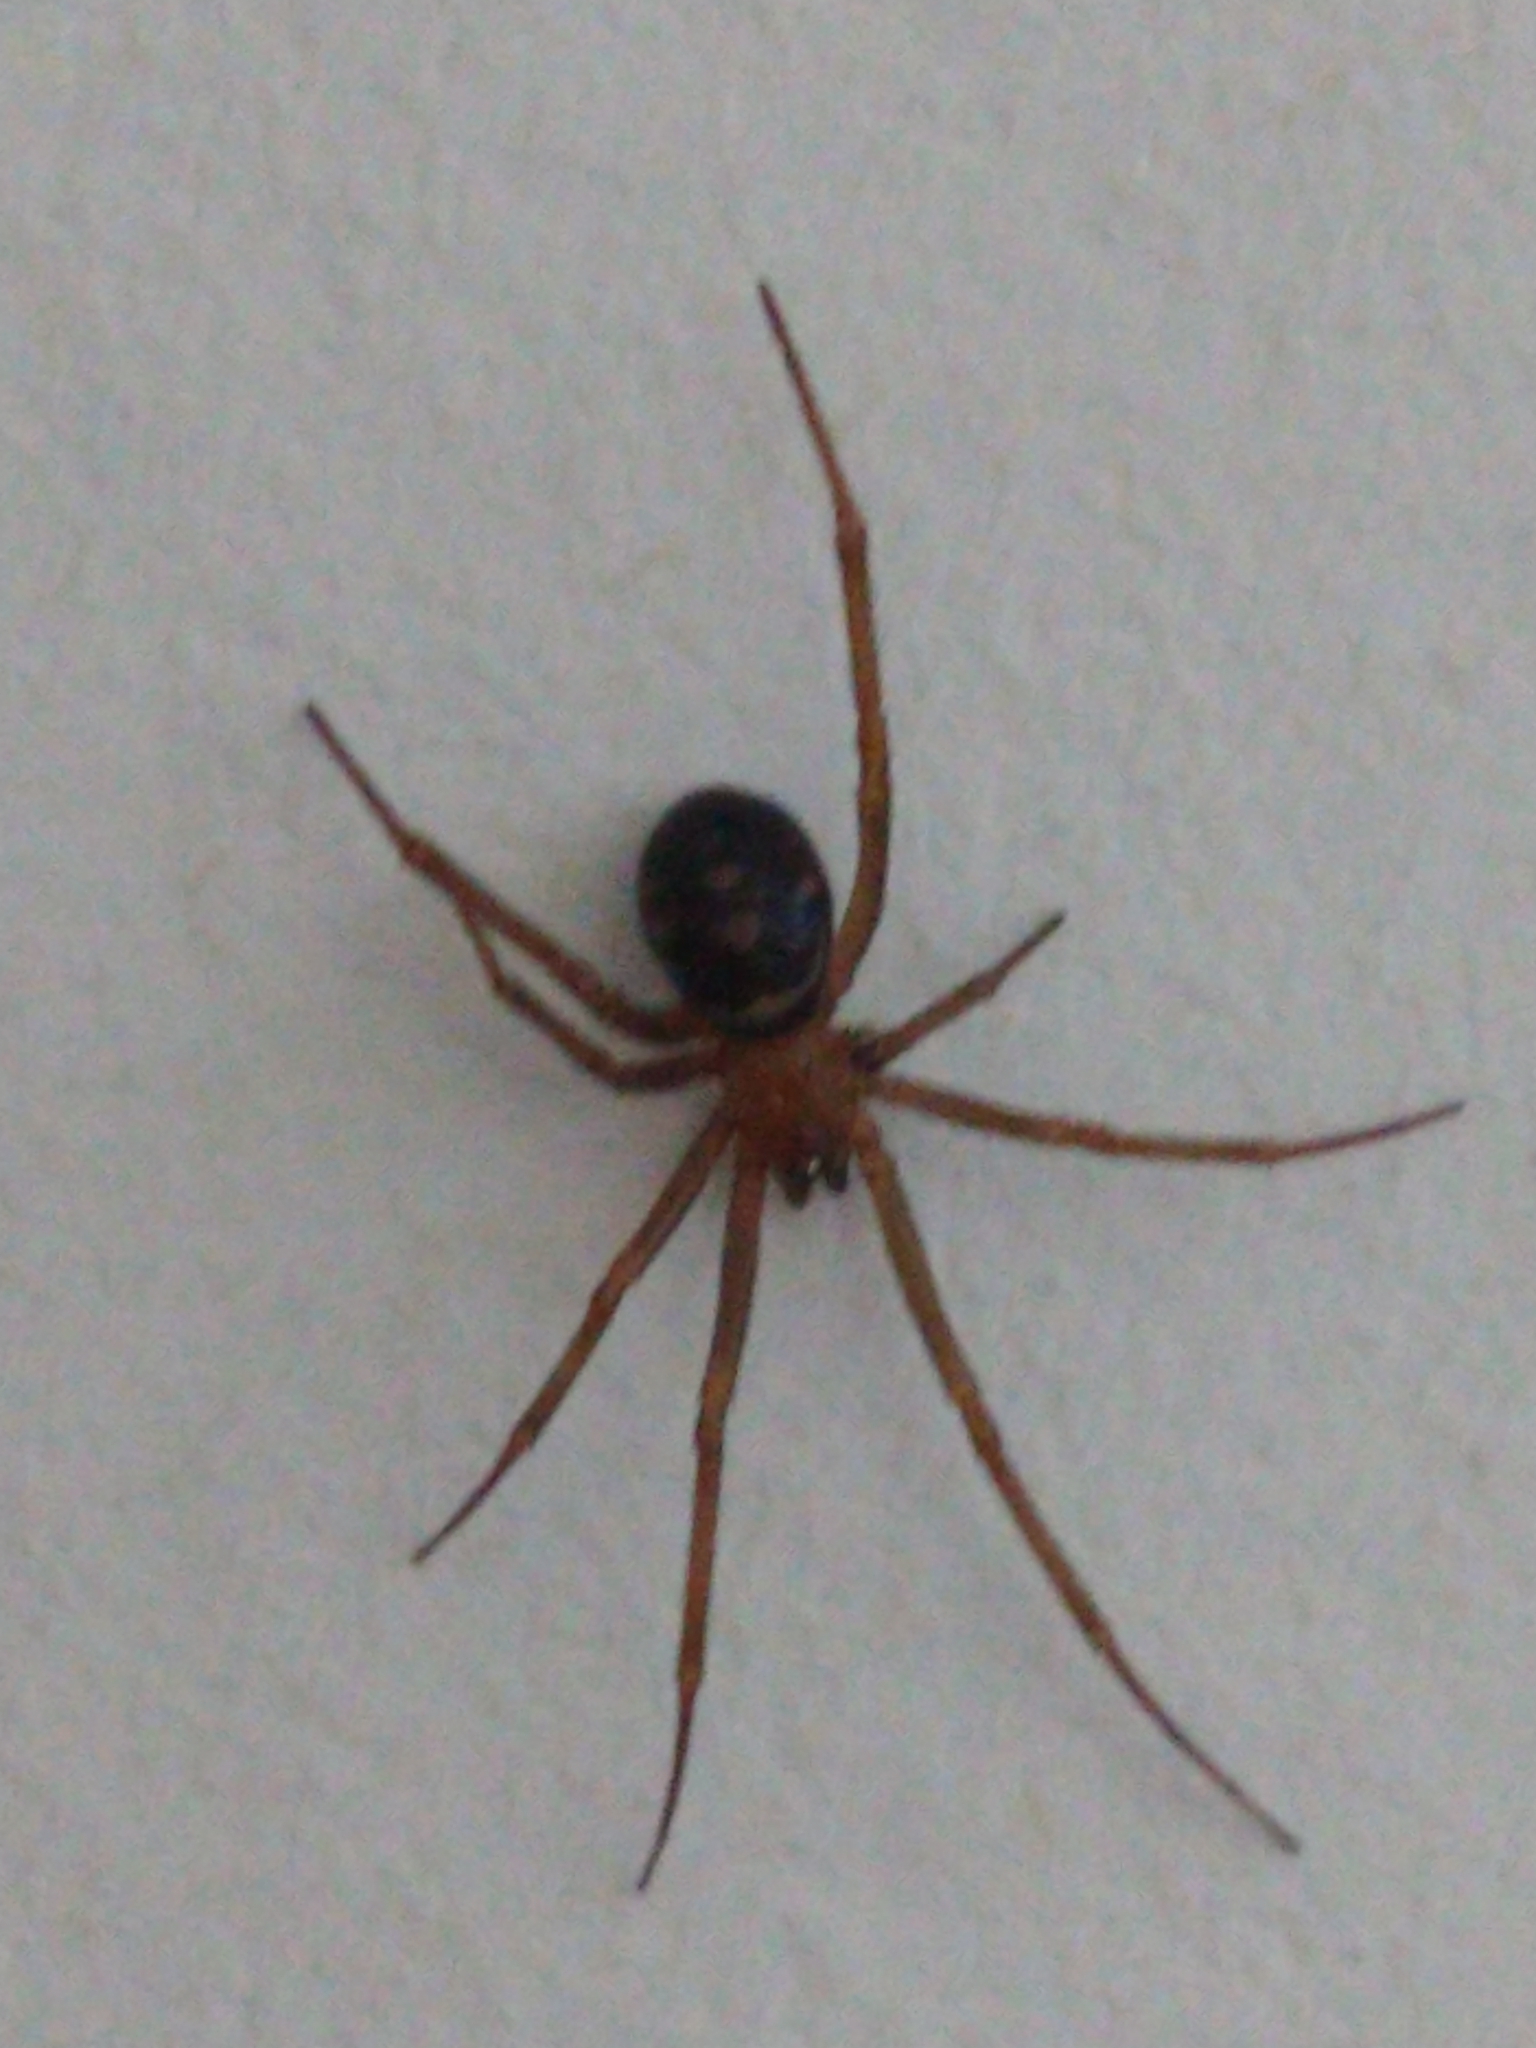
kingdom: Animalia
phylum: Arthropoda
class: Arachnida
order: Araneae
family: Theridiidae
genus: Steatoda
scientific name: Steatoda grossa
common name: False black widow
